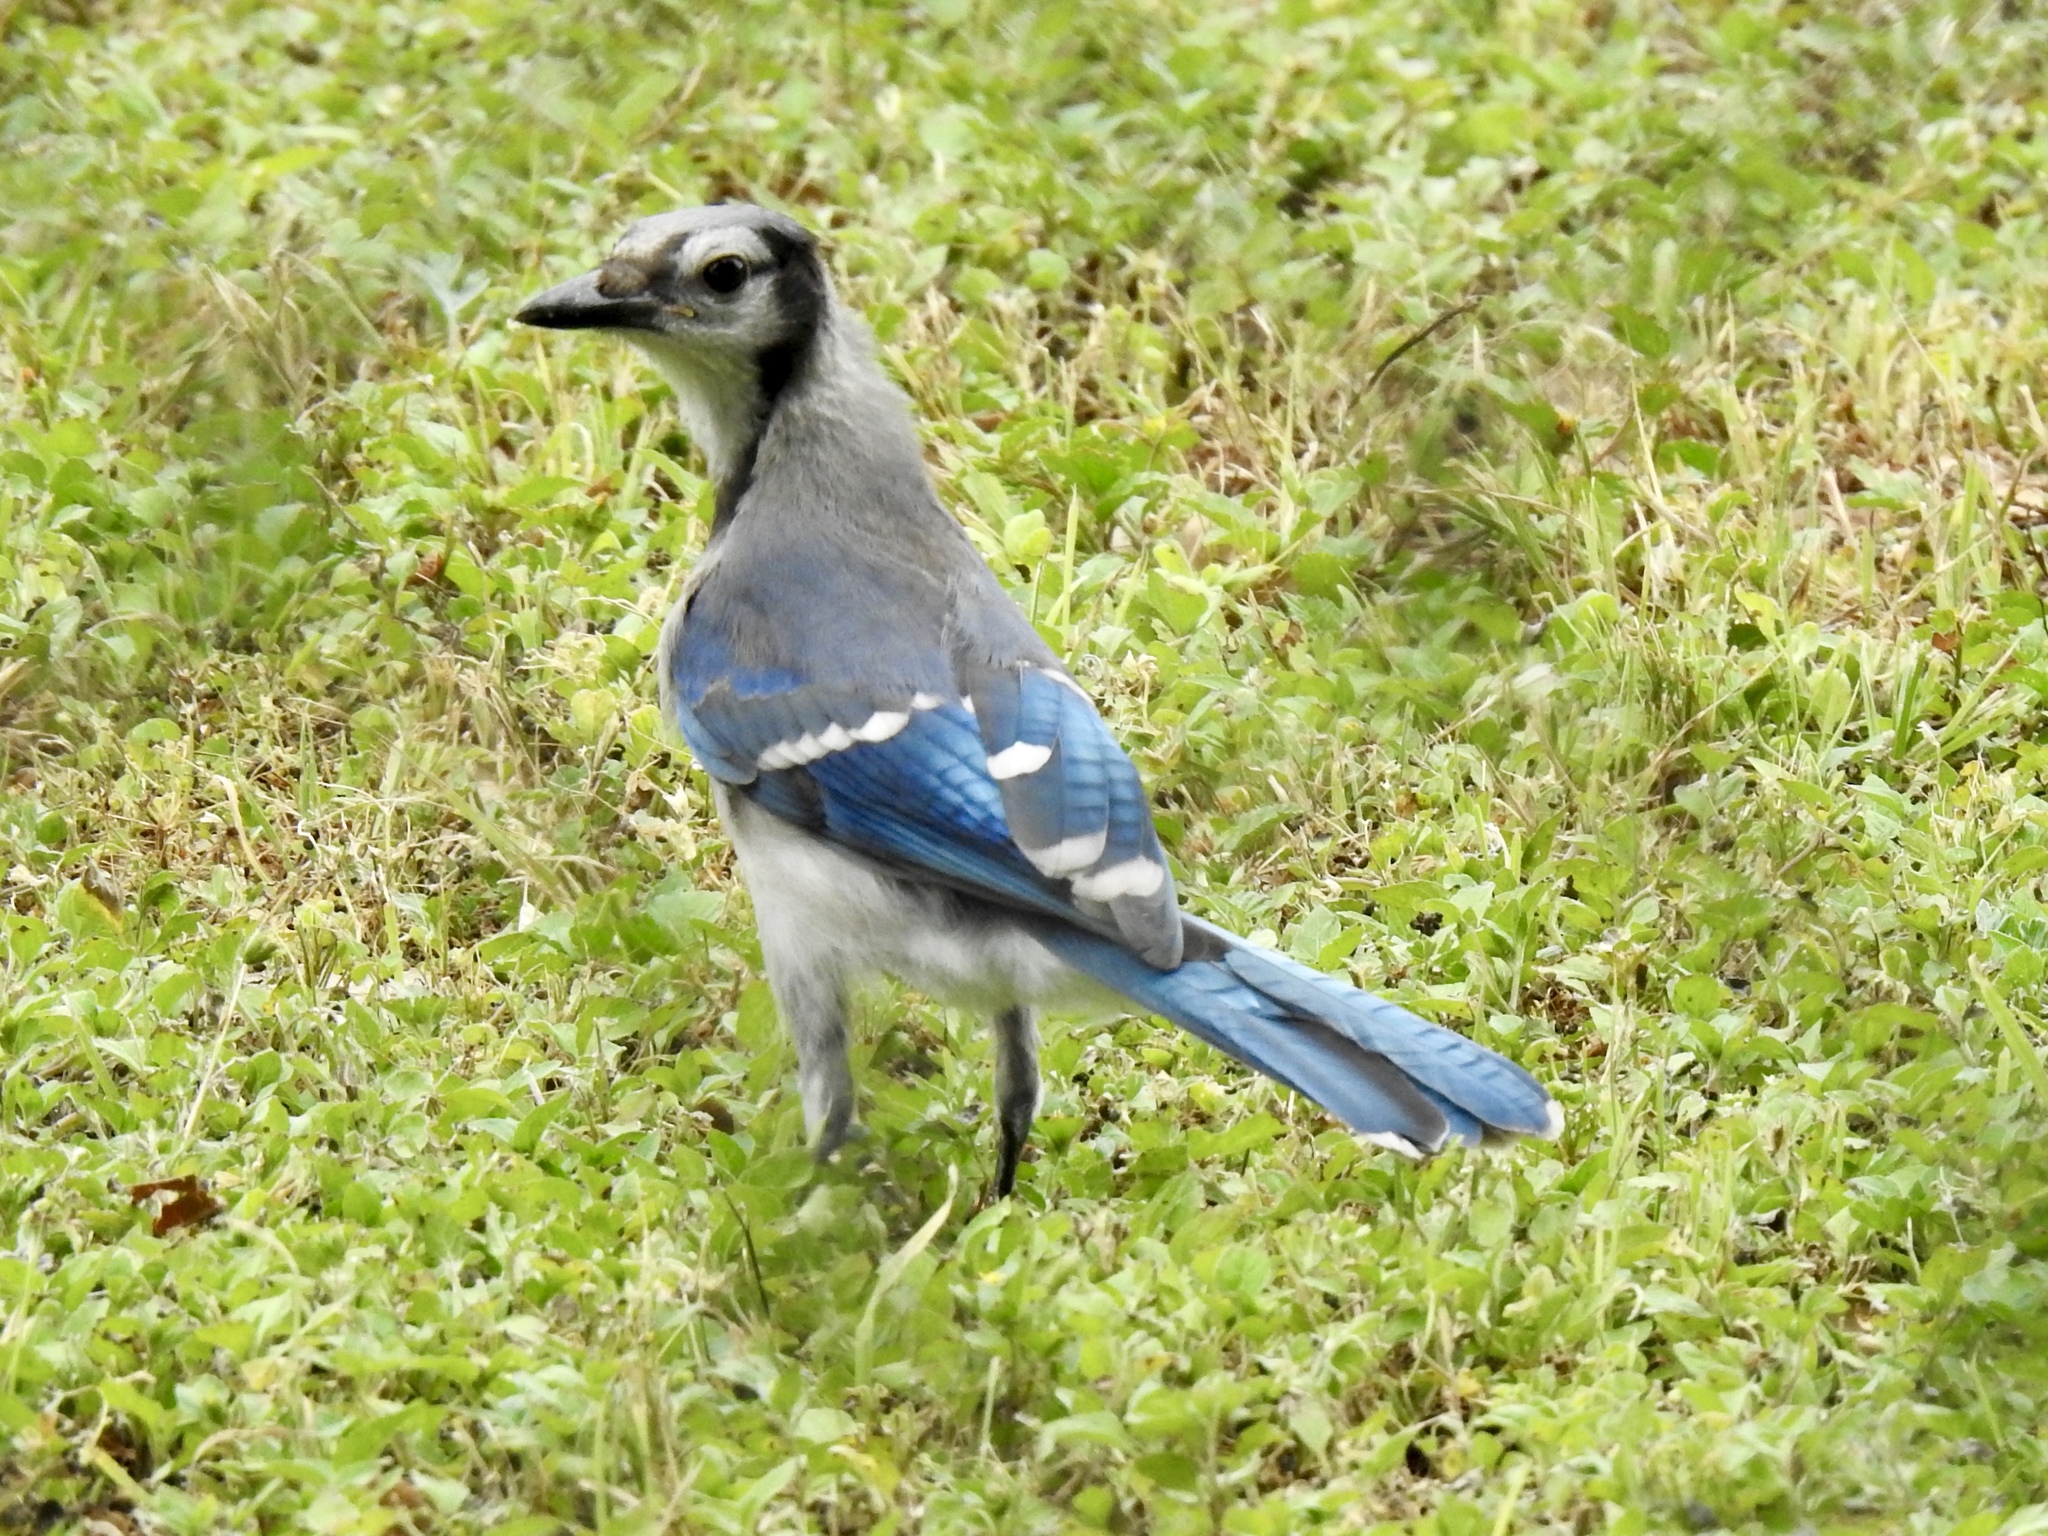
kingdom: Animalia
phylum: Chordata
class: Aves
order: Passeriformes
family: Corvidae
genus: Cyanocitta
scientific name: Cyanocitta cristata
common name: Blue jay
